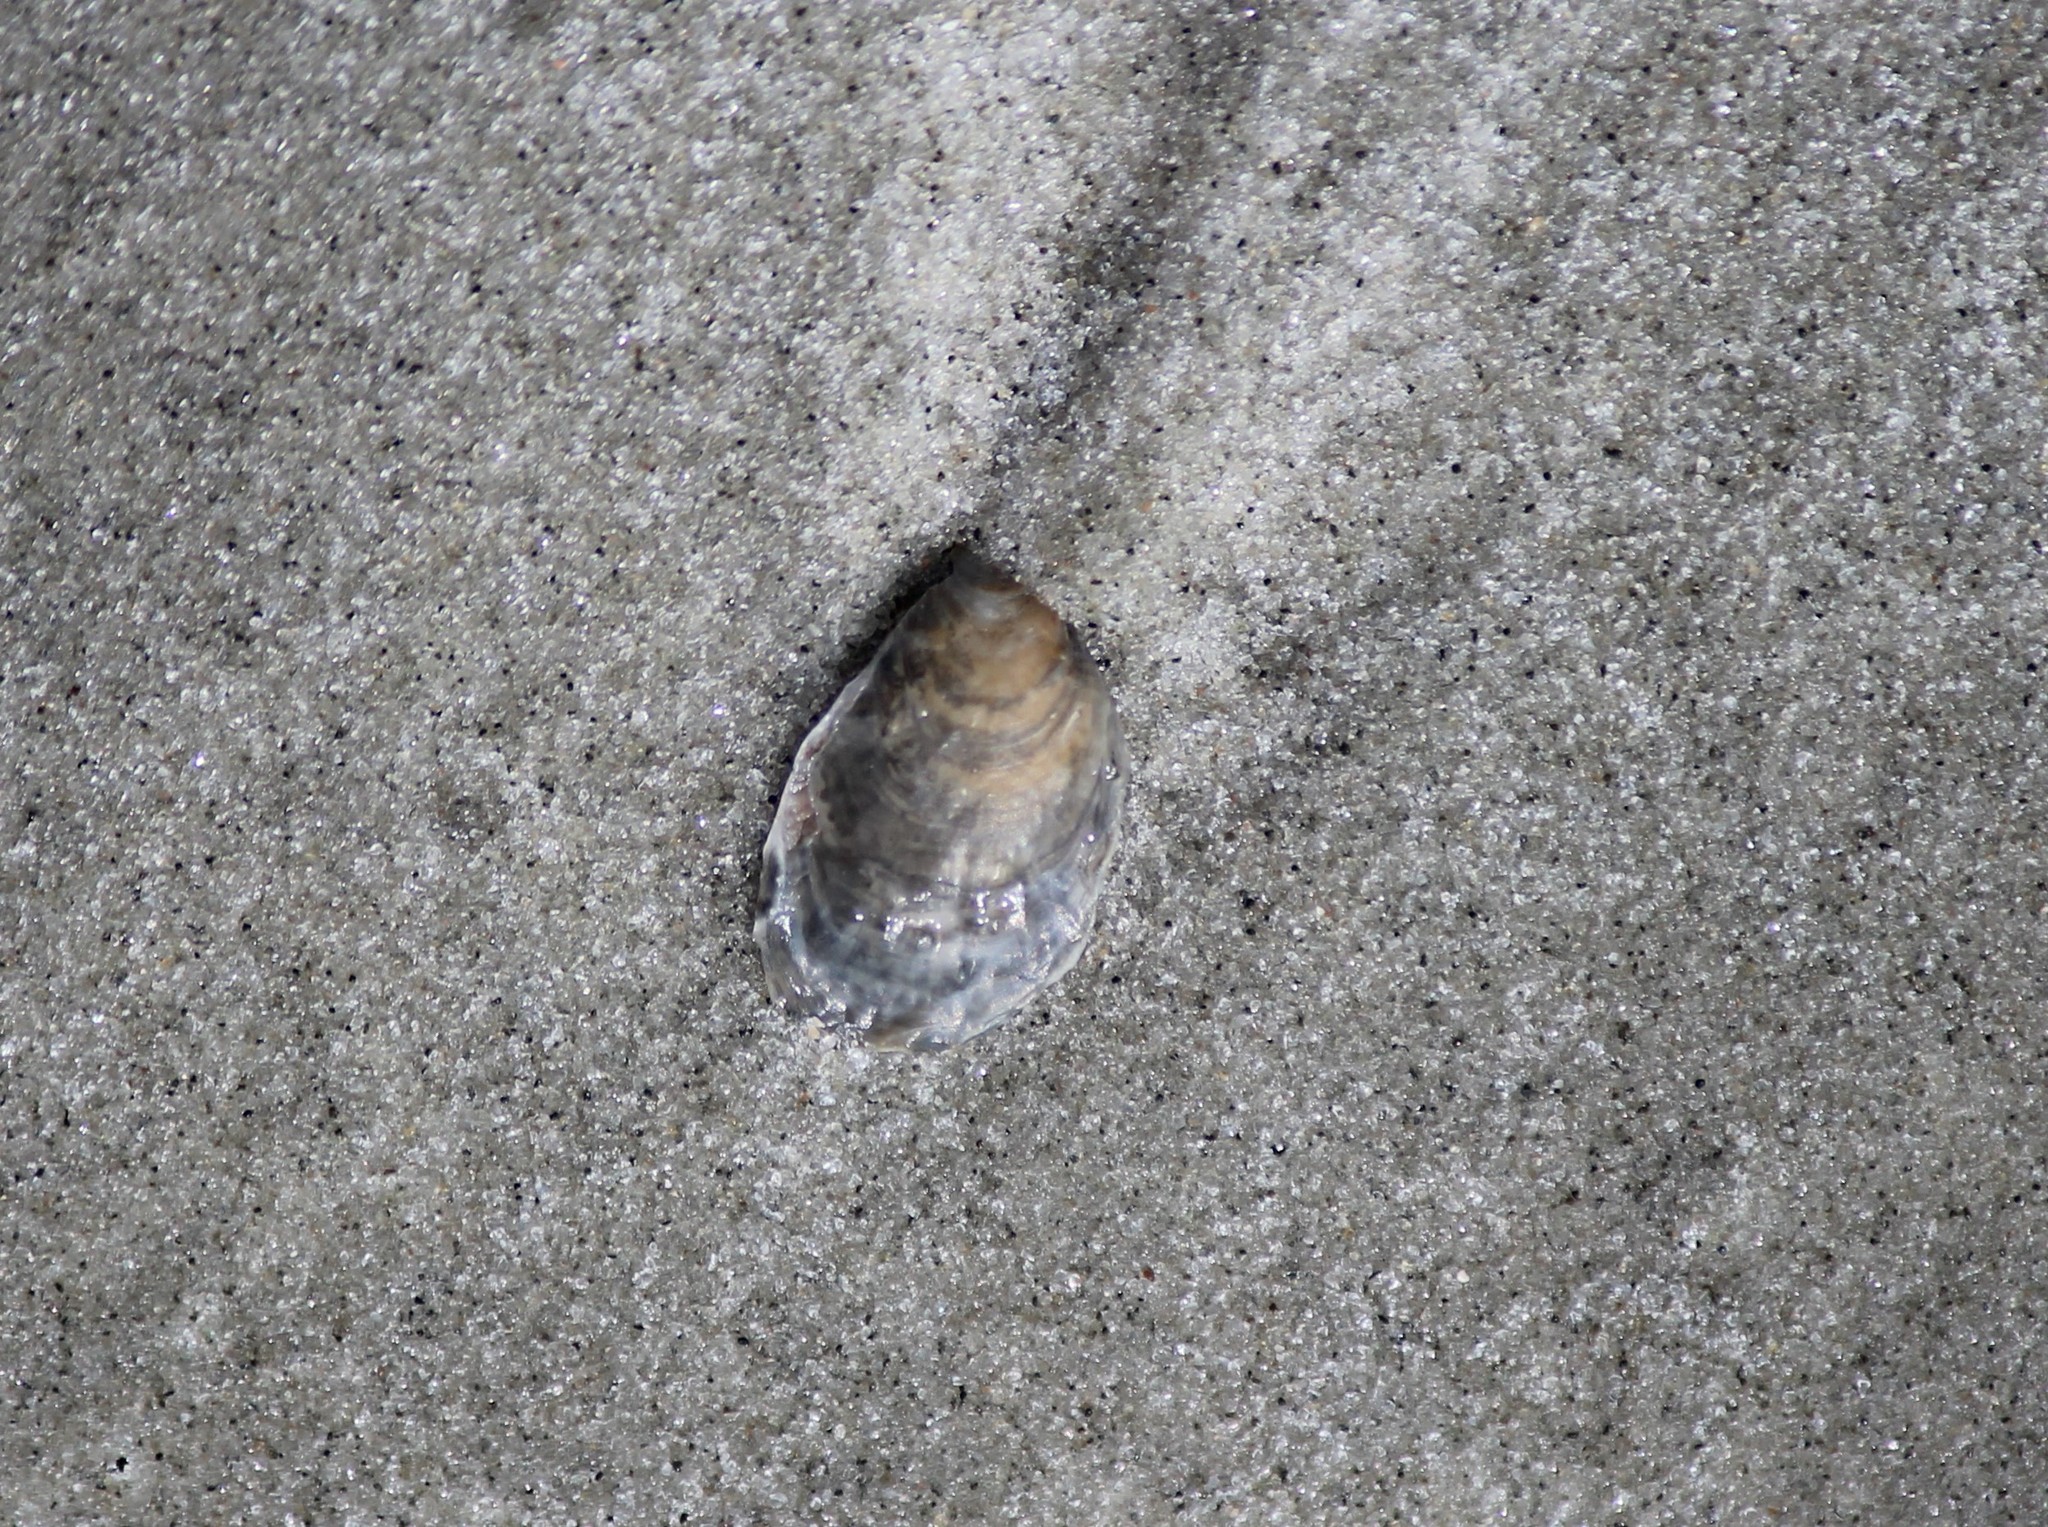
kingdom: Animalia
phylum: Mollusca
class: Bivalvia
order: Ostreida
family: Ostreidae
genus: Crassostrea
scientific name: Crassostrea virginica
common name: American oyster
